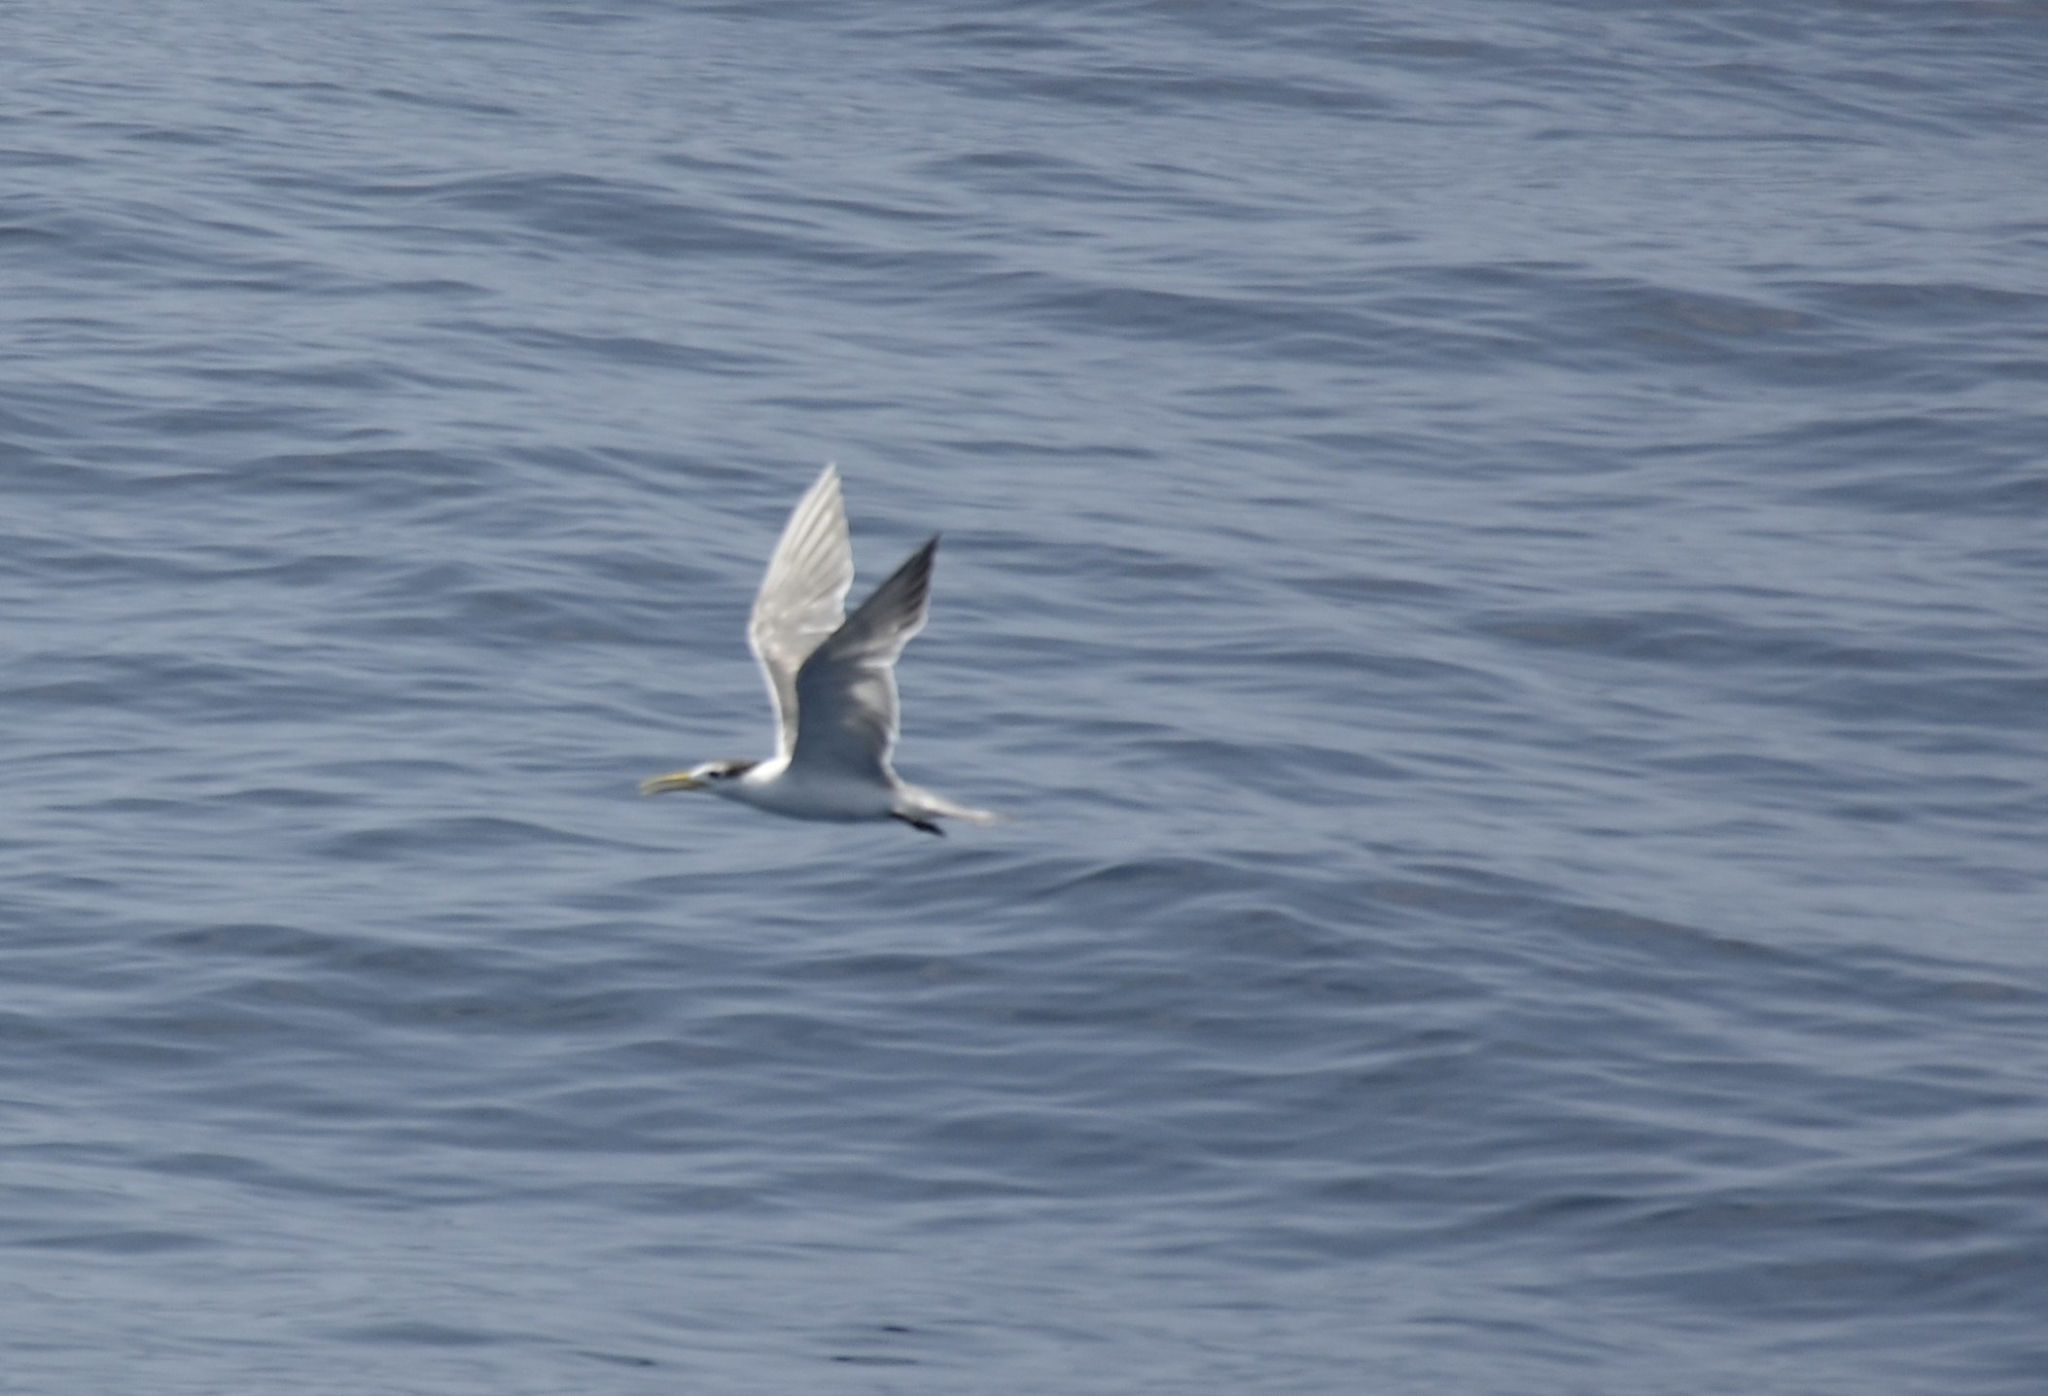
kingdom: Animalia
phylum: Chordata
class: Aves
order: Charadriiformes
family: Laridae
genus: Thalasseus
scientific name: Thalasseus bergii
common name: Greater crested tern
